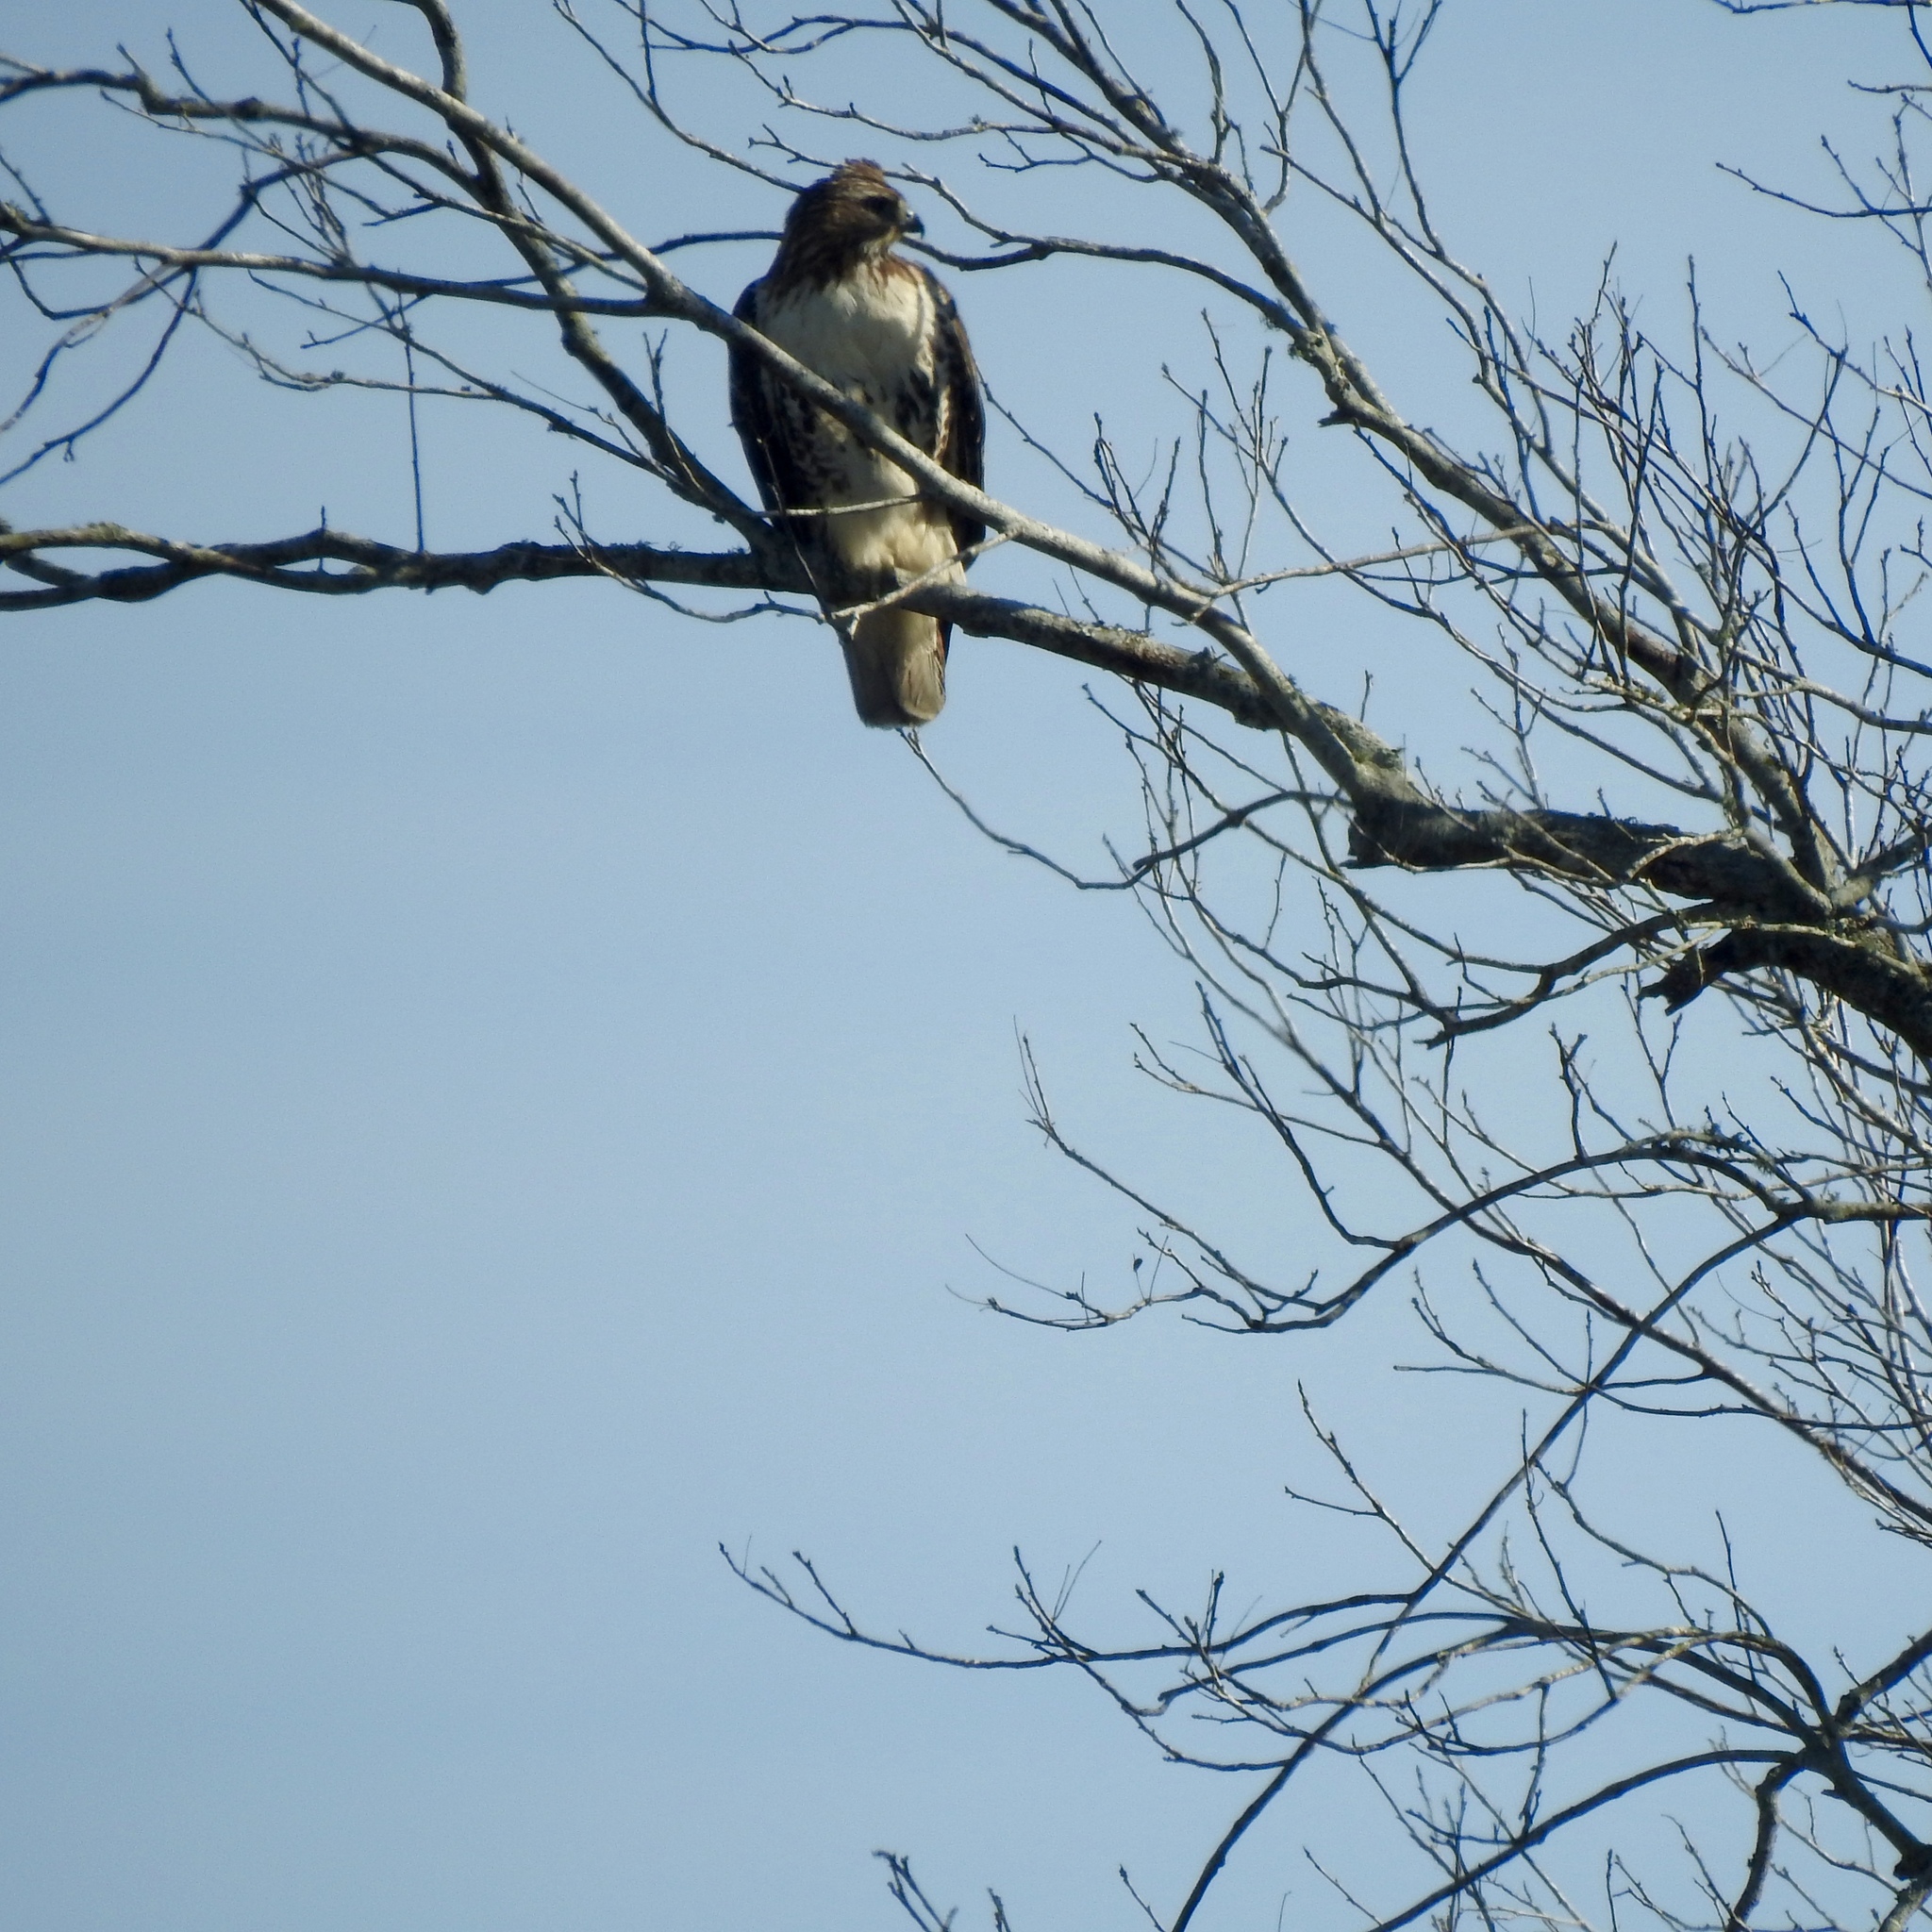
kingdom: Animalia
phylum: Chordata
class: Aves
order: Accipitriformes
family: Accipitridae
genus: Buteo
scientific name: Buteo jamaicensis
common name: Red-tailed hawk
